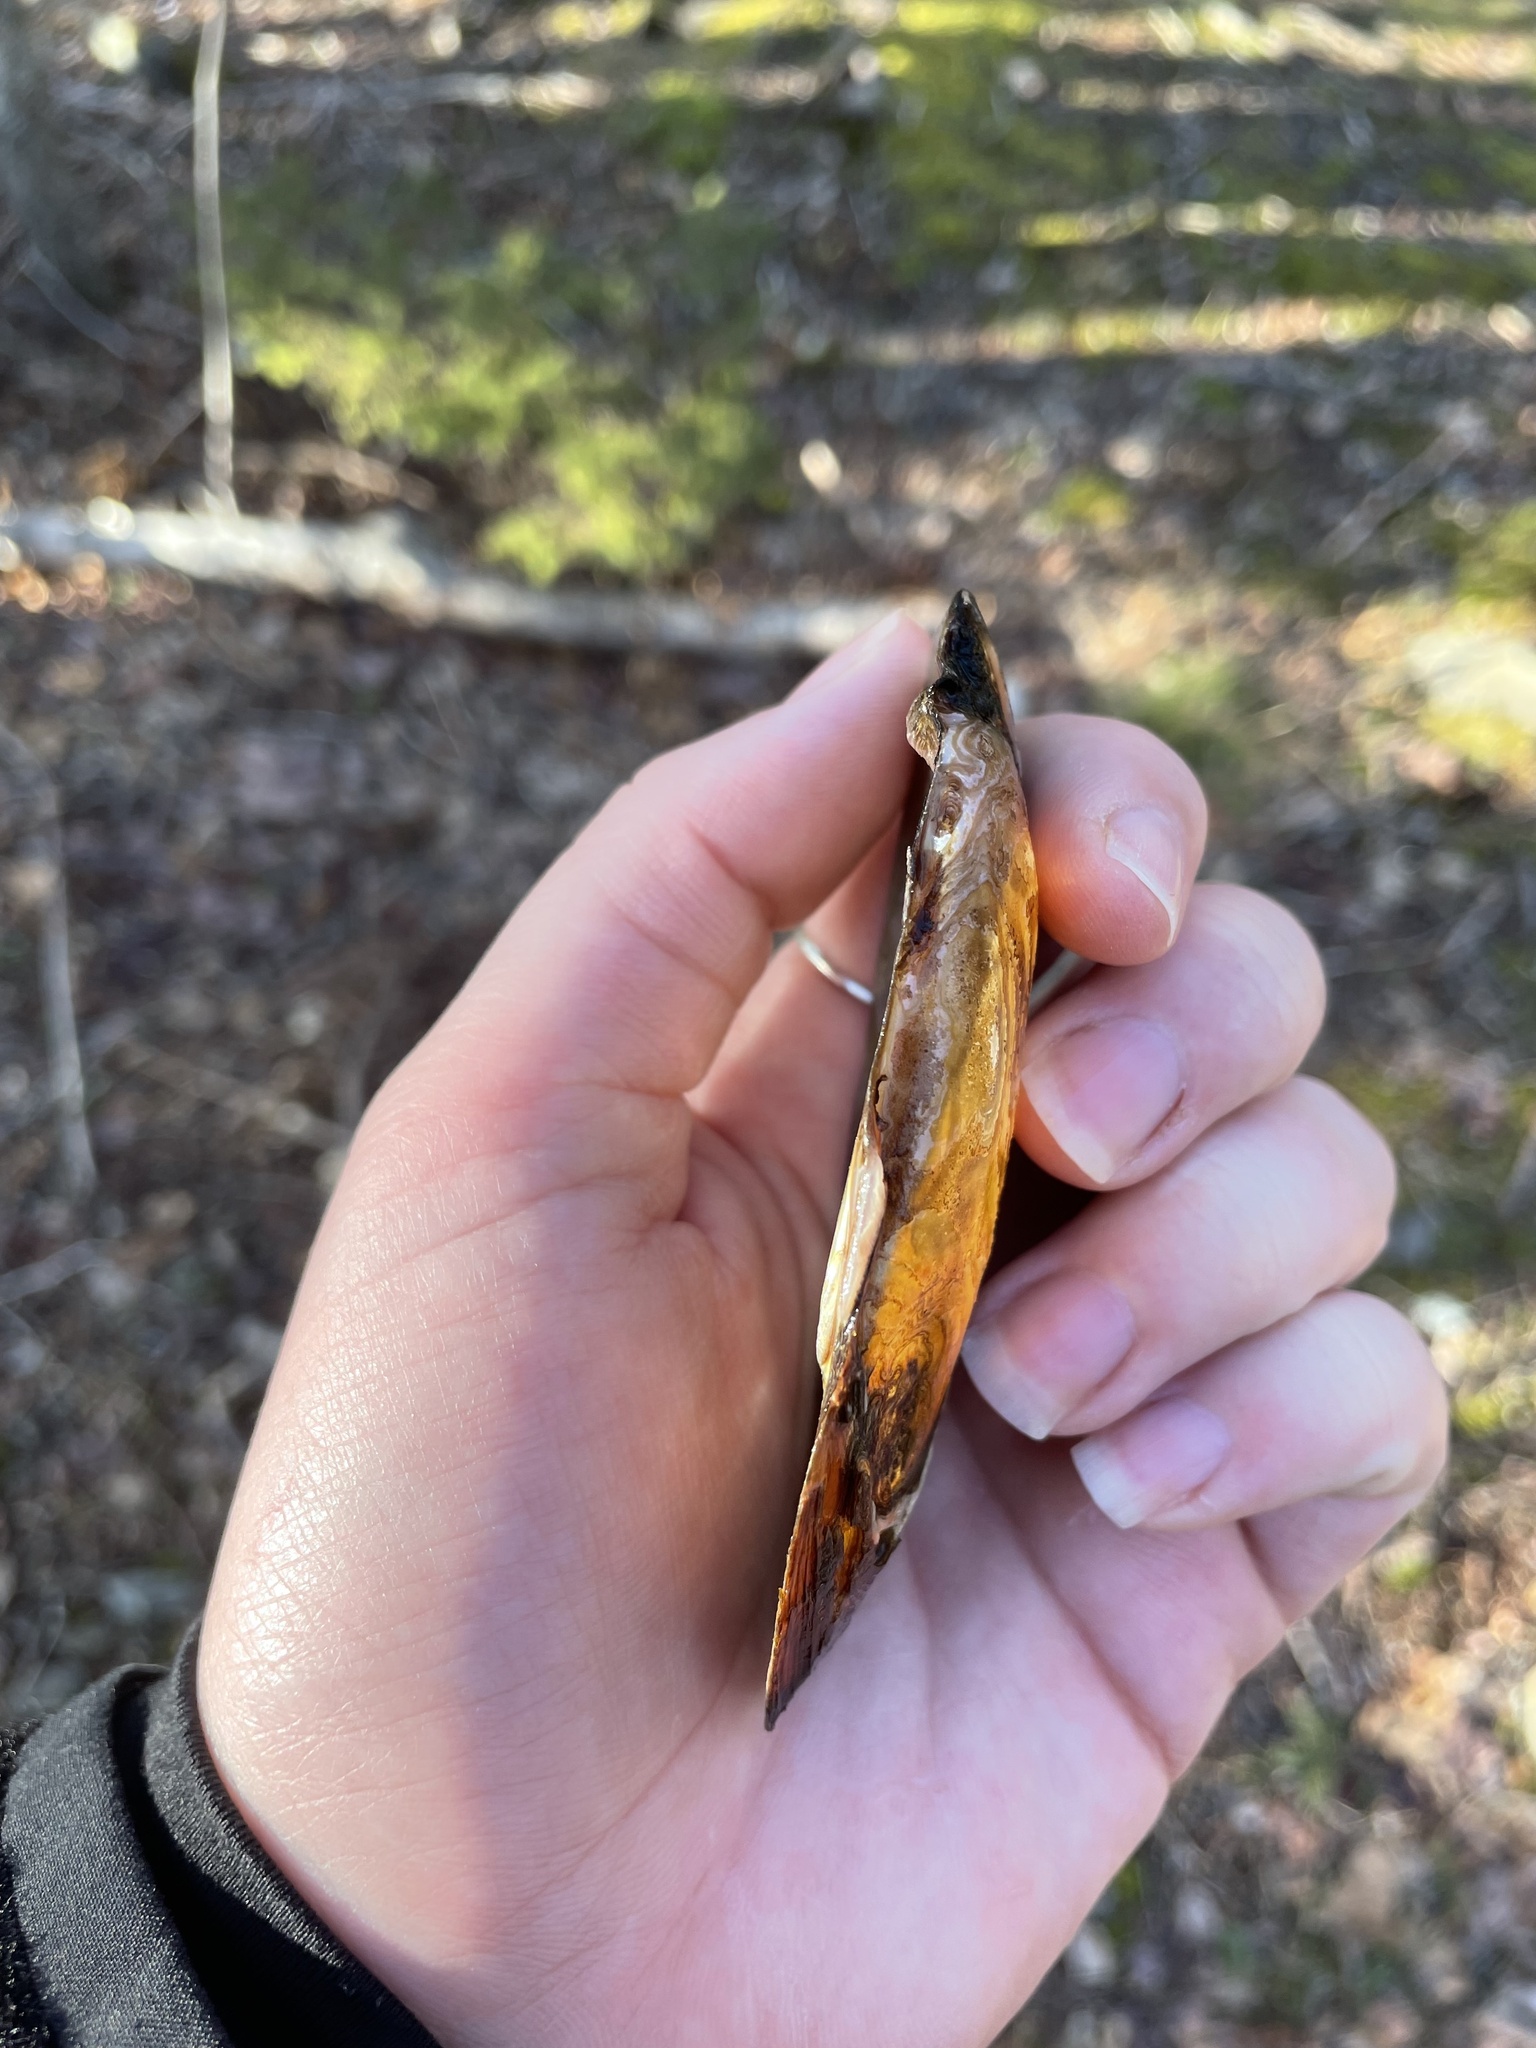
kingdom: Animalia
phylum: Mollusca
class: Bivalvia
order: Unionida
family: Unionidae
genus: Elliptio
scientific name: Elliptio complanata
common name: Eastern elliptio
